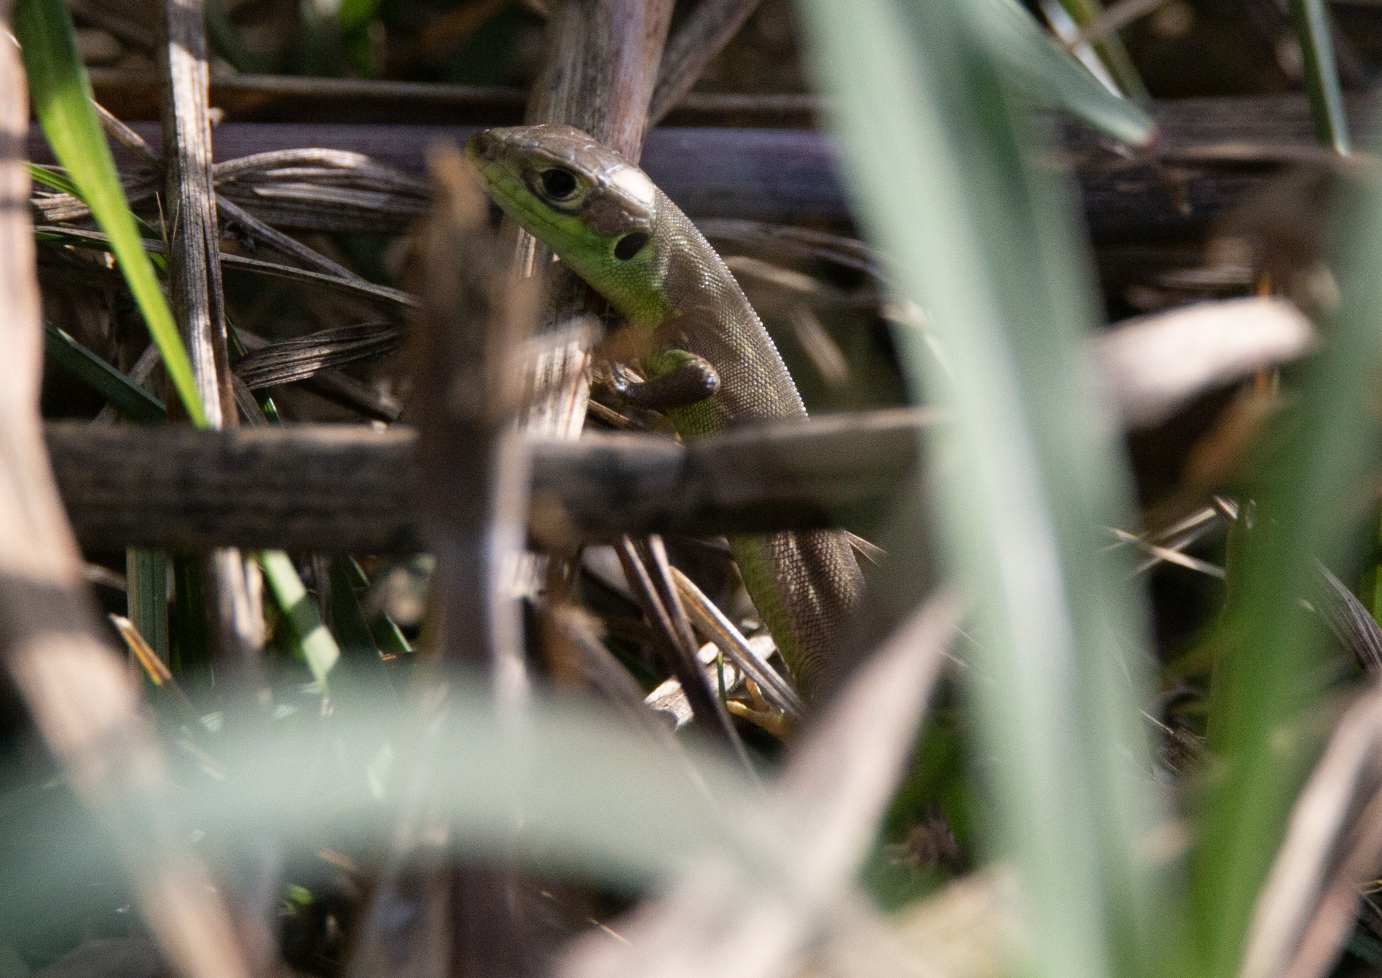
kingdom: Animalia
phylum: Chordata
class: Squamata
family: Lacertidae
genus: Lacerta
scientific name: Lacerta bilineata
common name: Western green lizard
